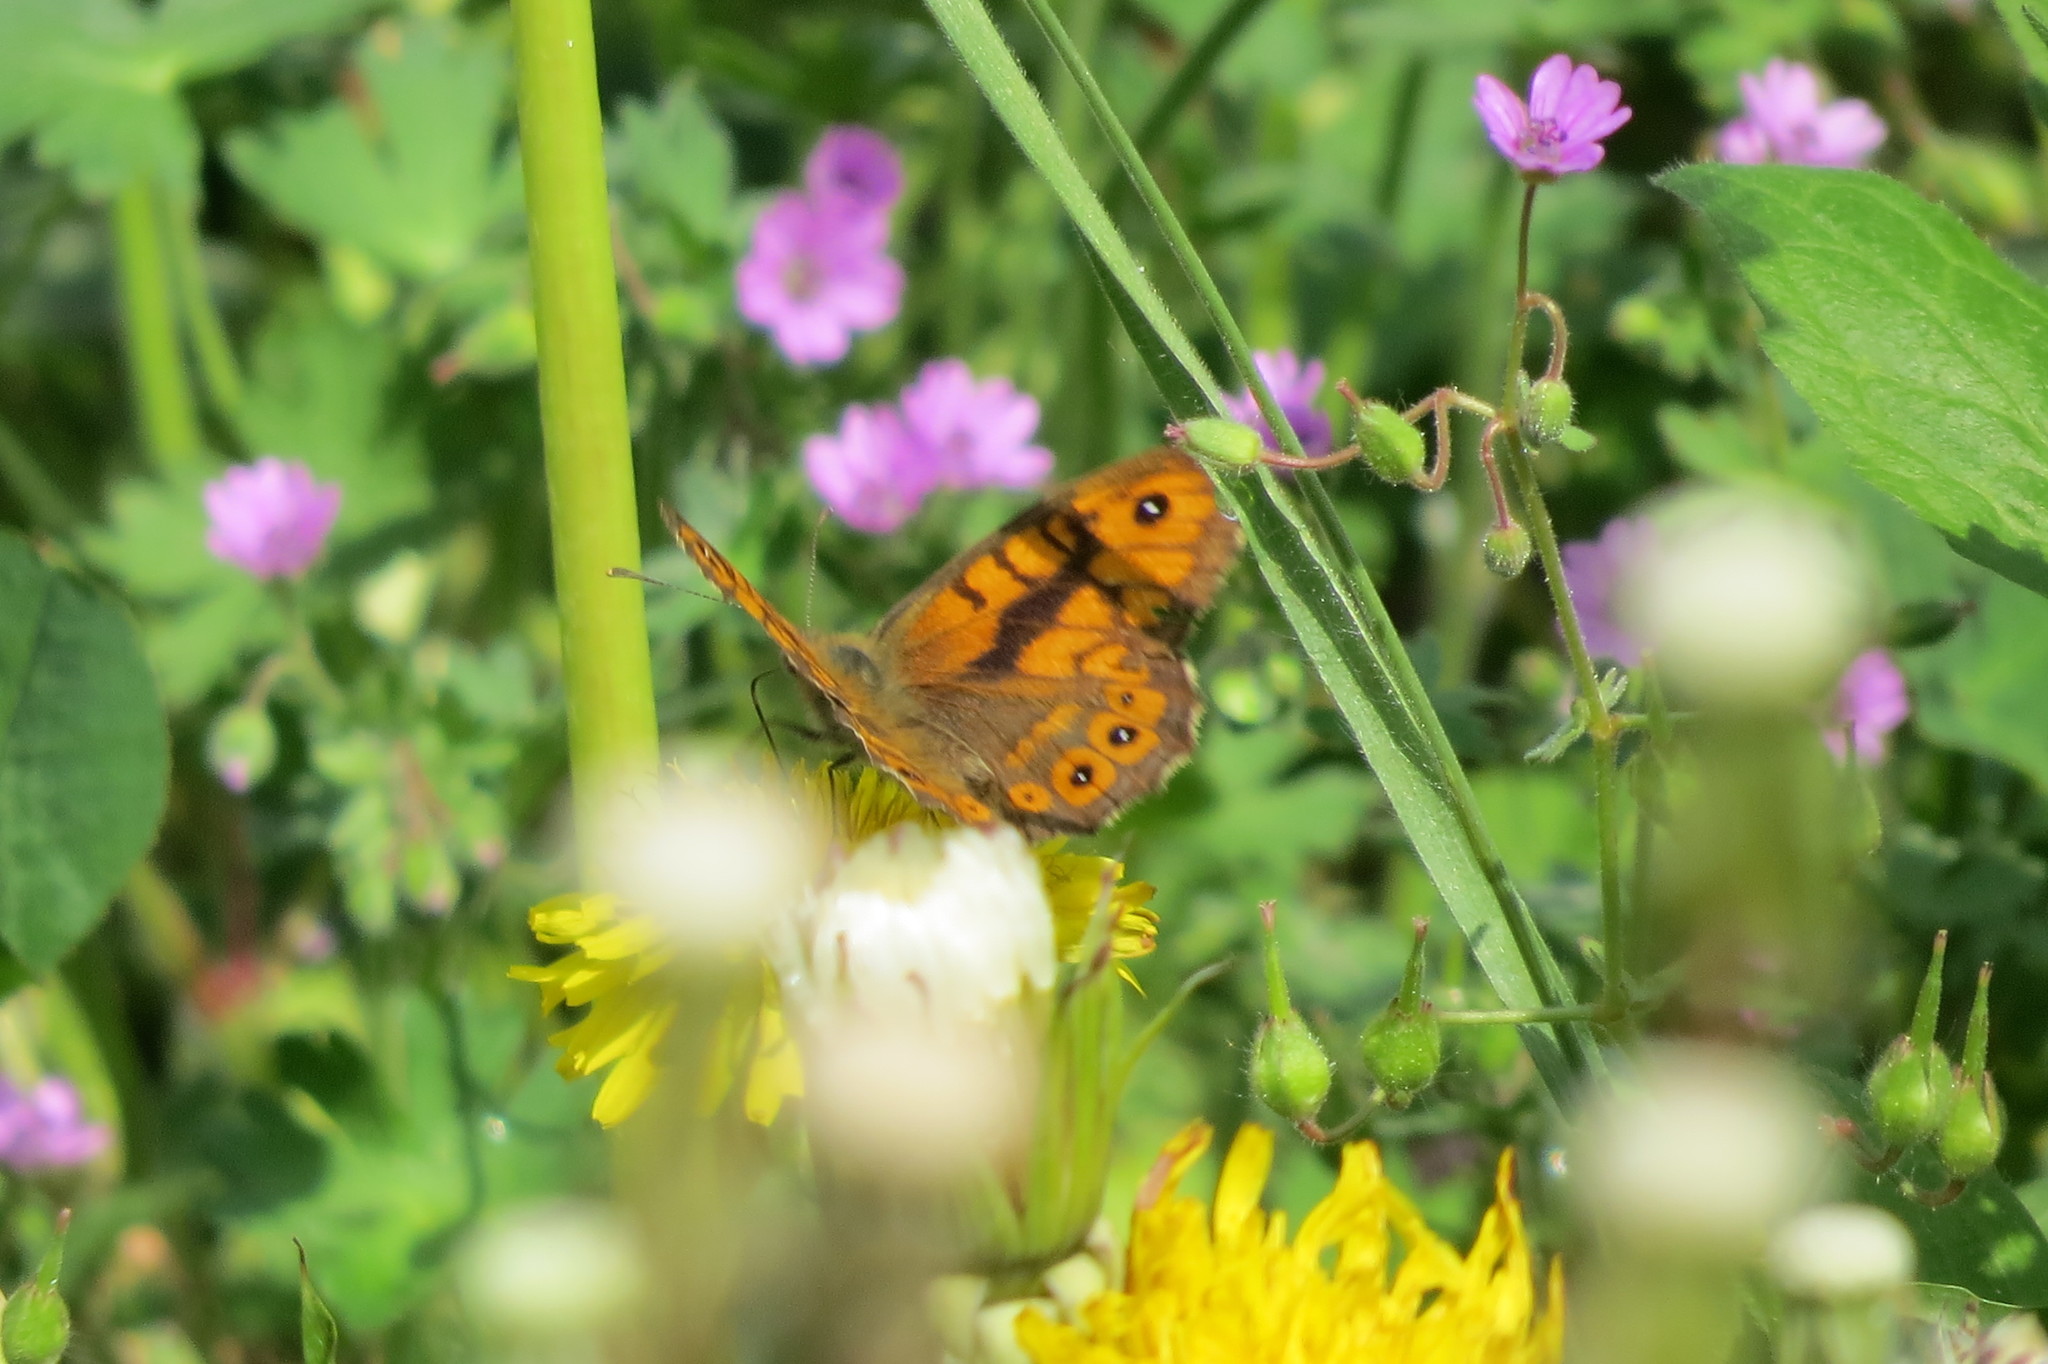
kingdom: Animalia
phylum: Arthropoda
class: Insecta
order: Lepidoptera
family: Nymphalidae
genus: Pararge
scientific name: Pararge Lasiommata megera
